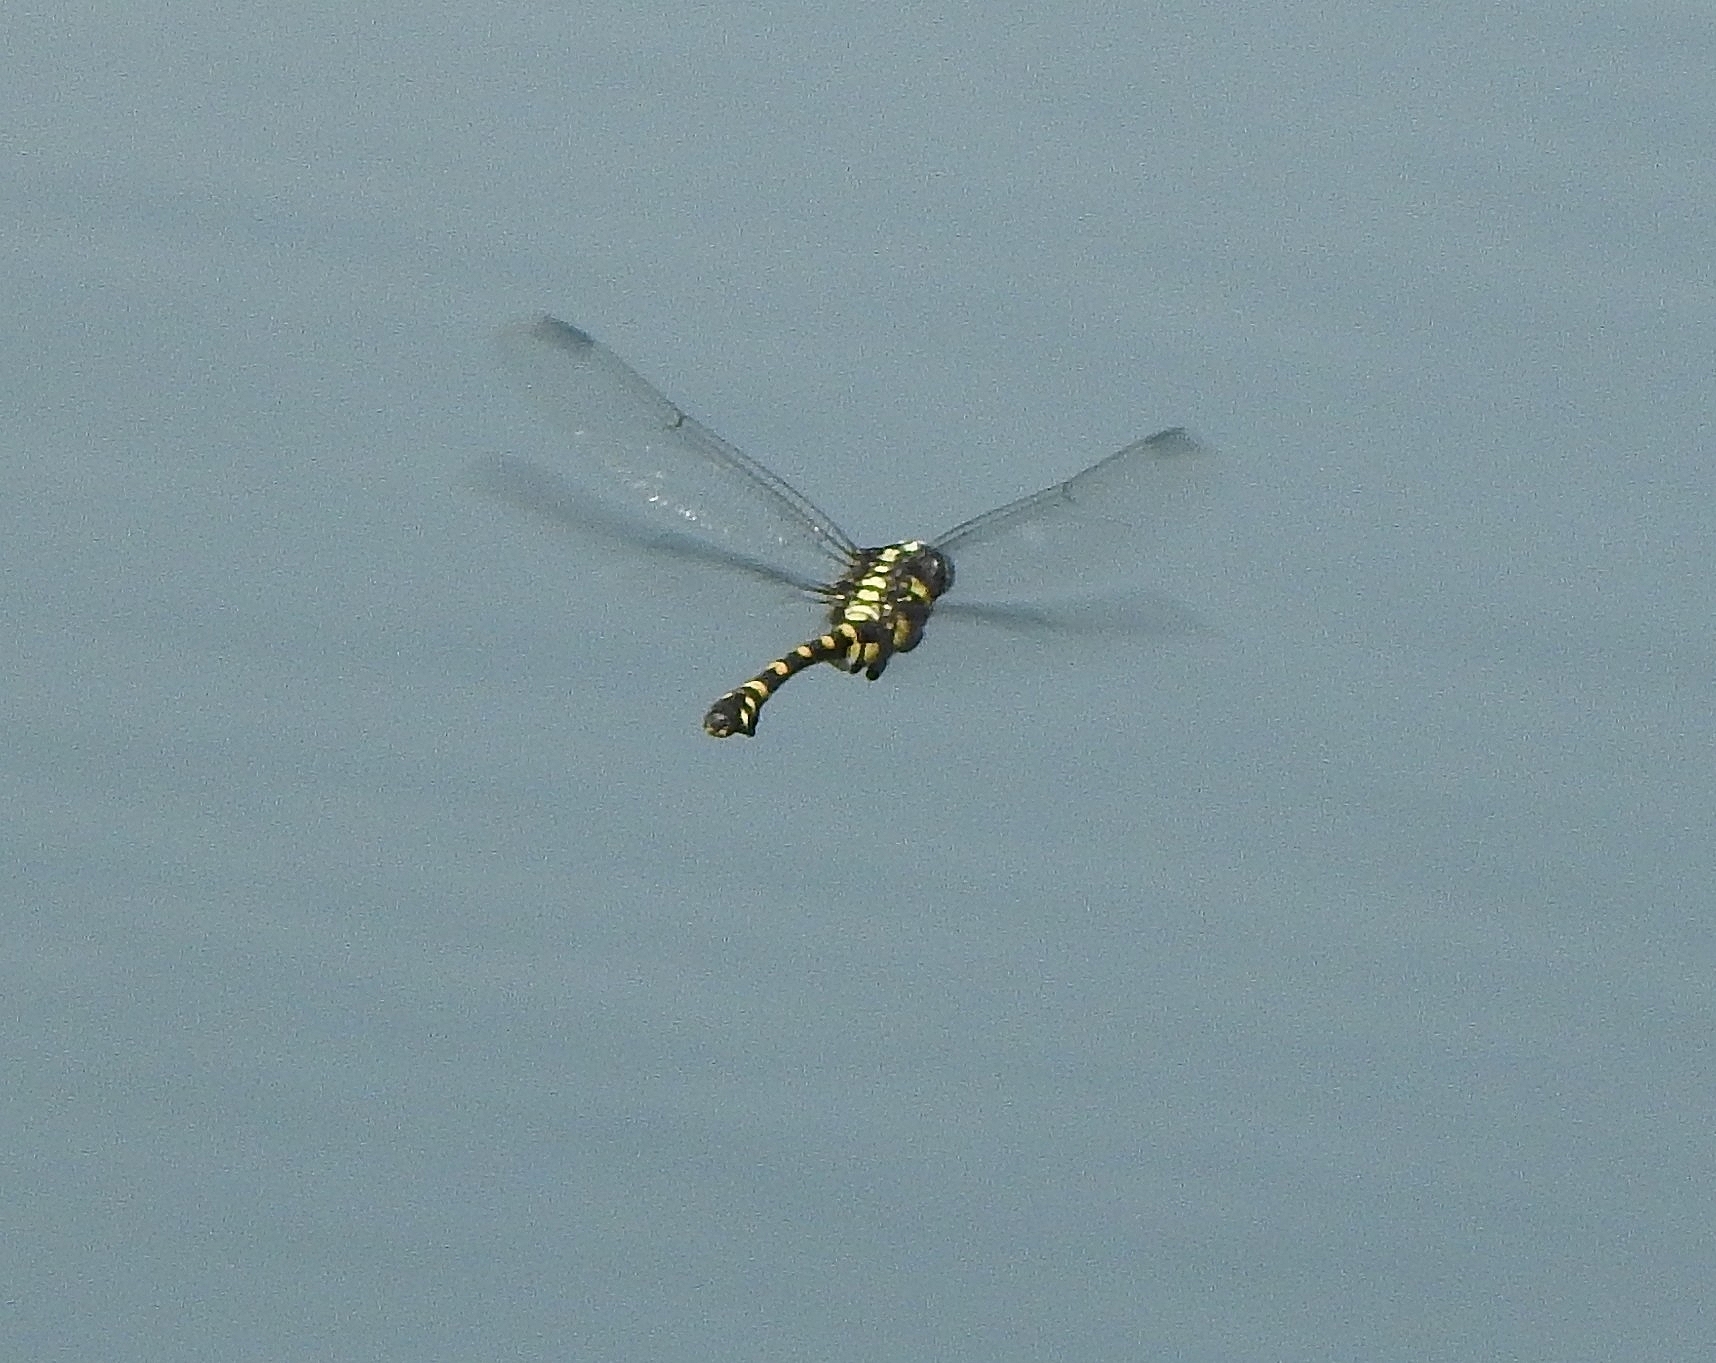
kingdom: Animalia
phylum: Arthropoda
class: Insecta
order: Odonata
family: Gomphidae
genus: Ictinogomphus
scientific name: Ictinogomphus rapax
